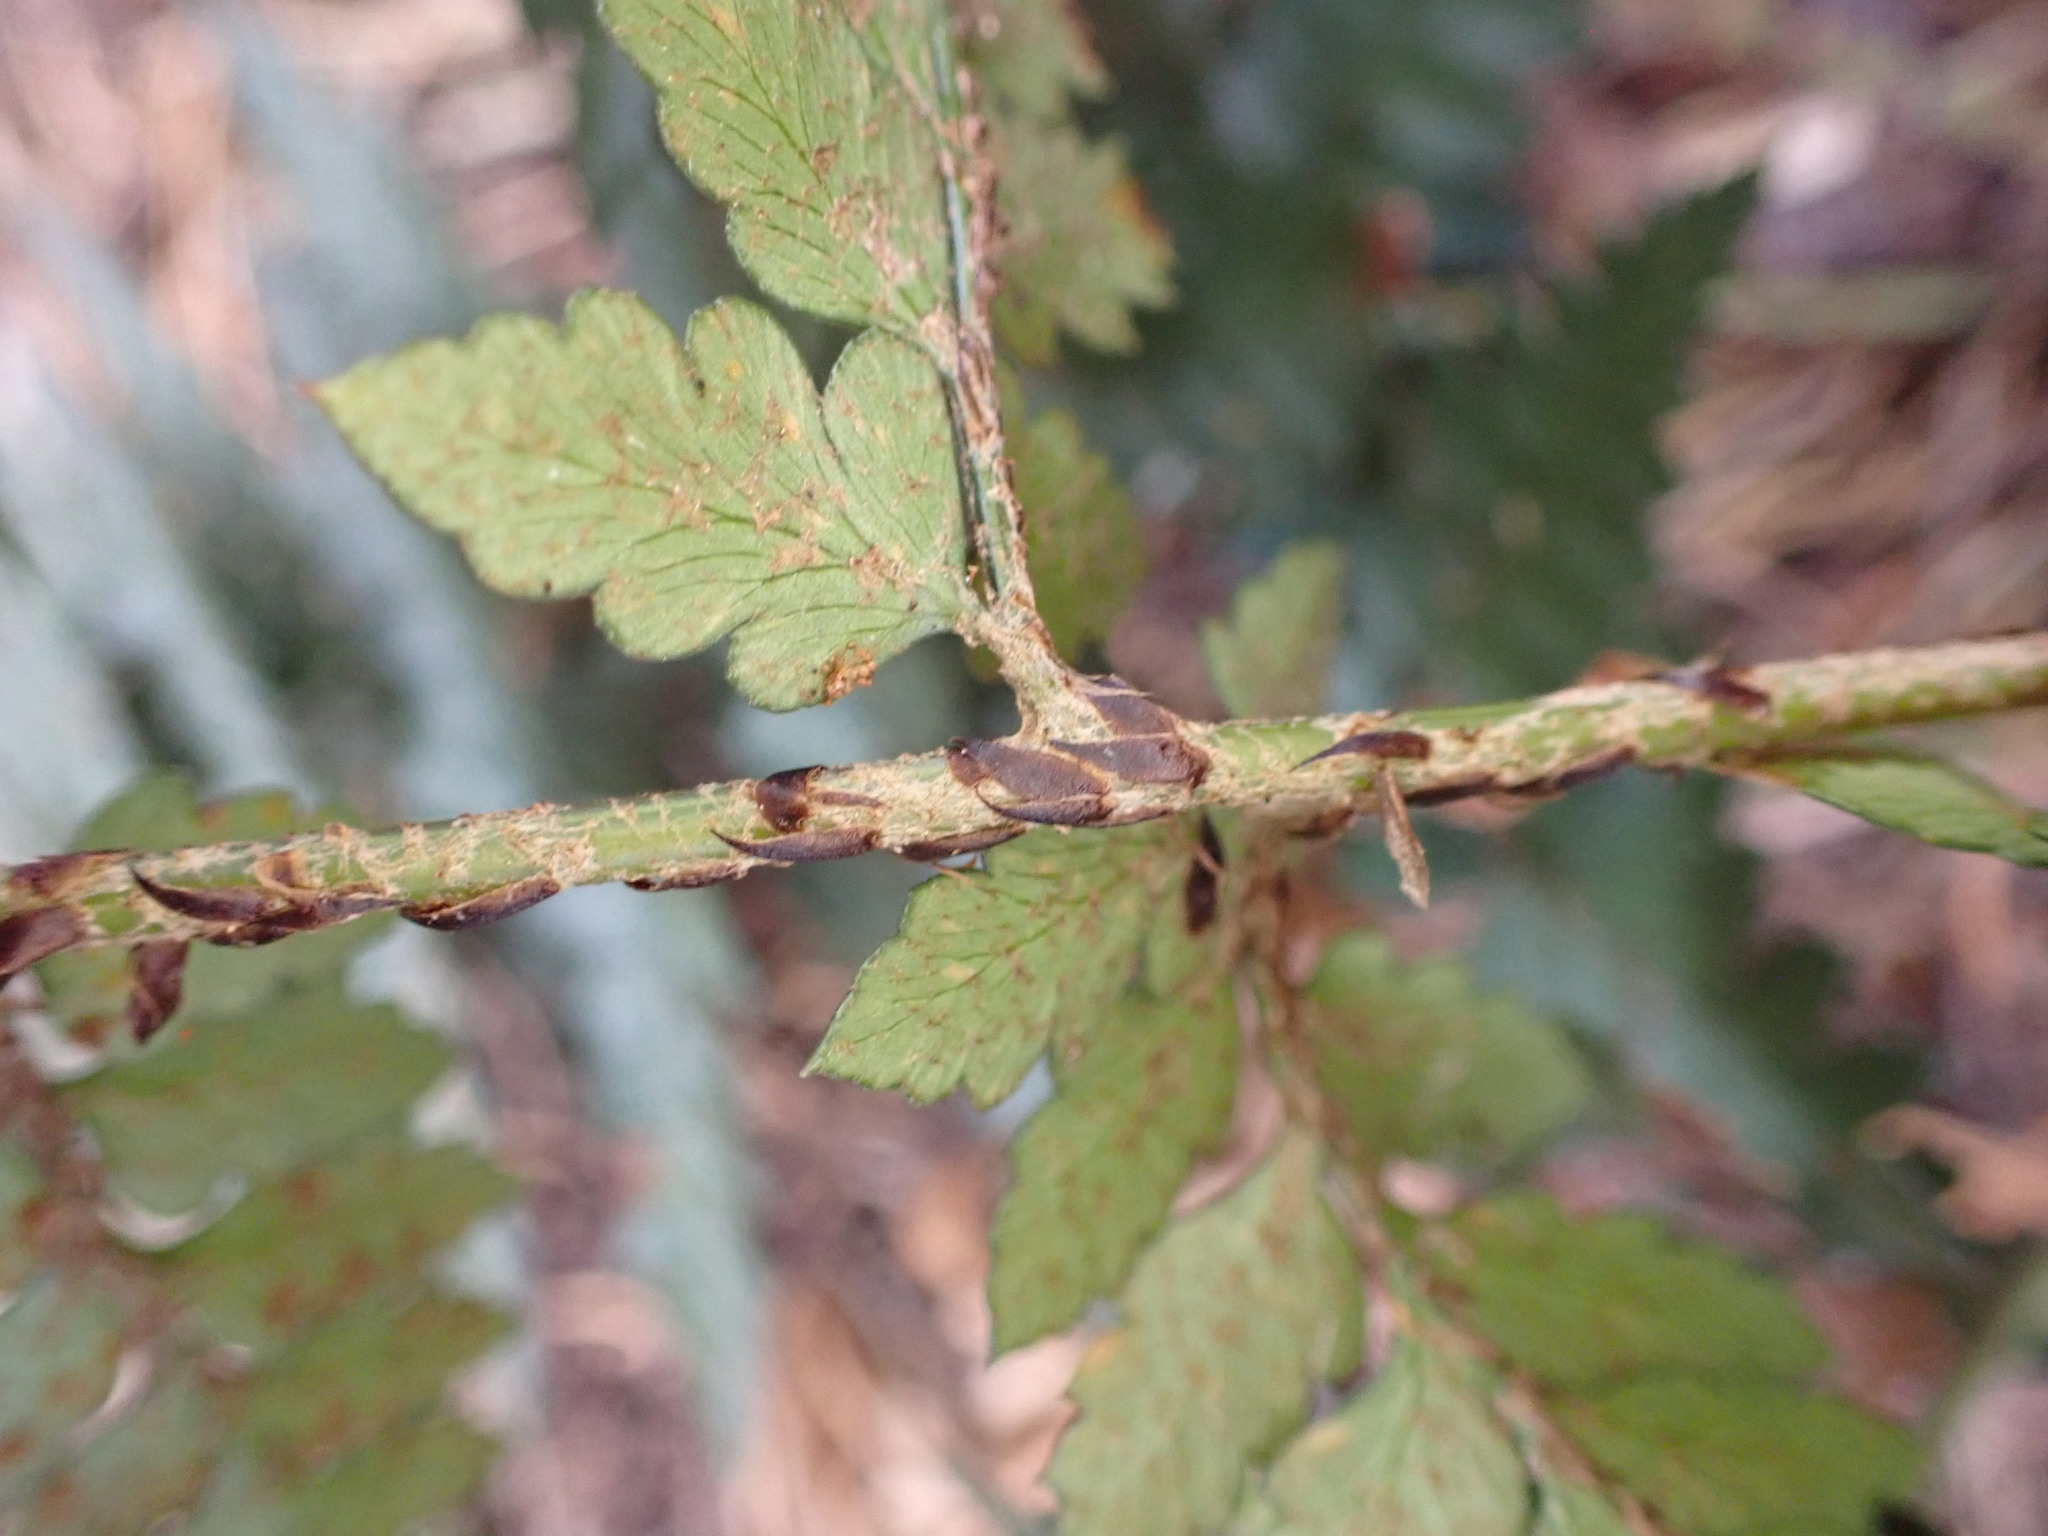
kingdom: Plantae
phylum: Tracheophyta
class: Polypodiopsida
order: Polypodiales
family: Dryopteridaceae
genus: Polystichum
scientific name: Polystichum oculatum
